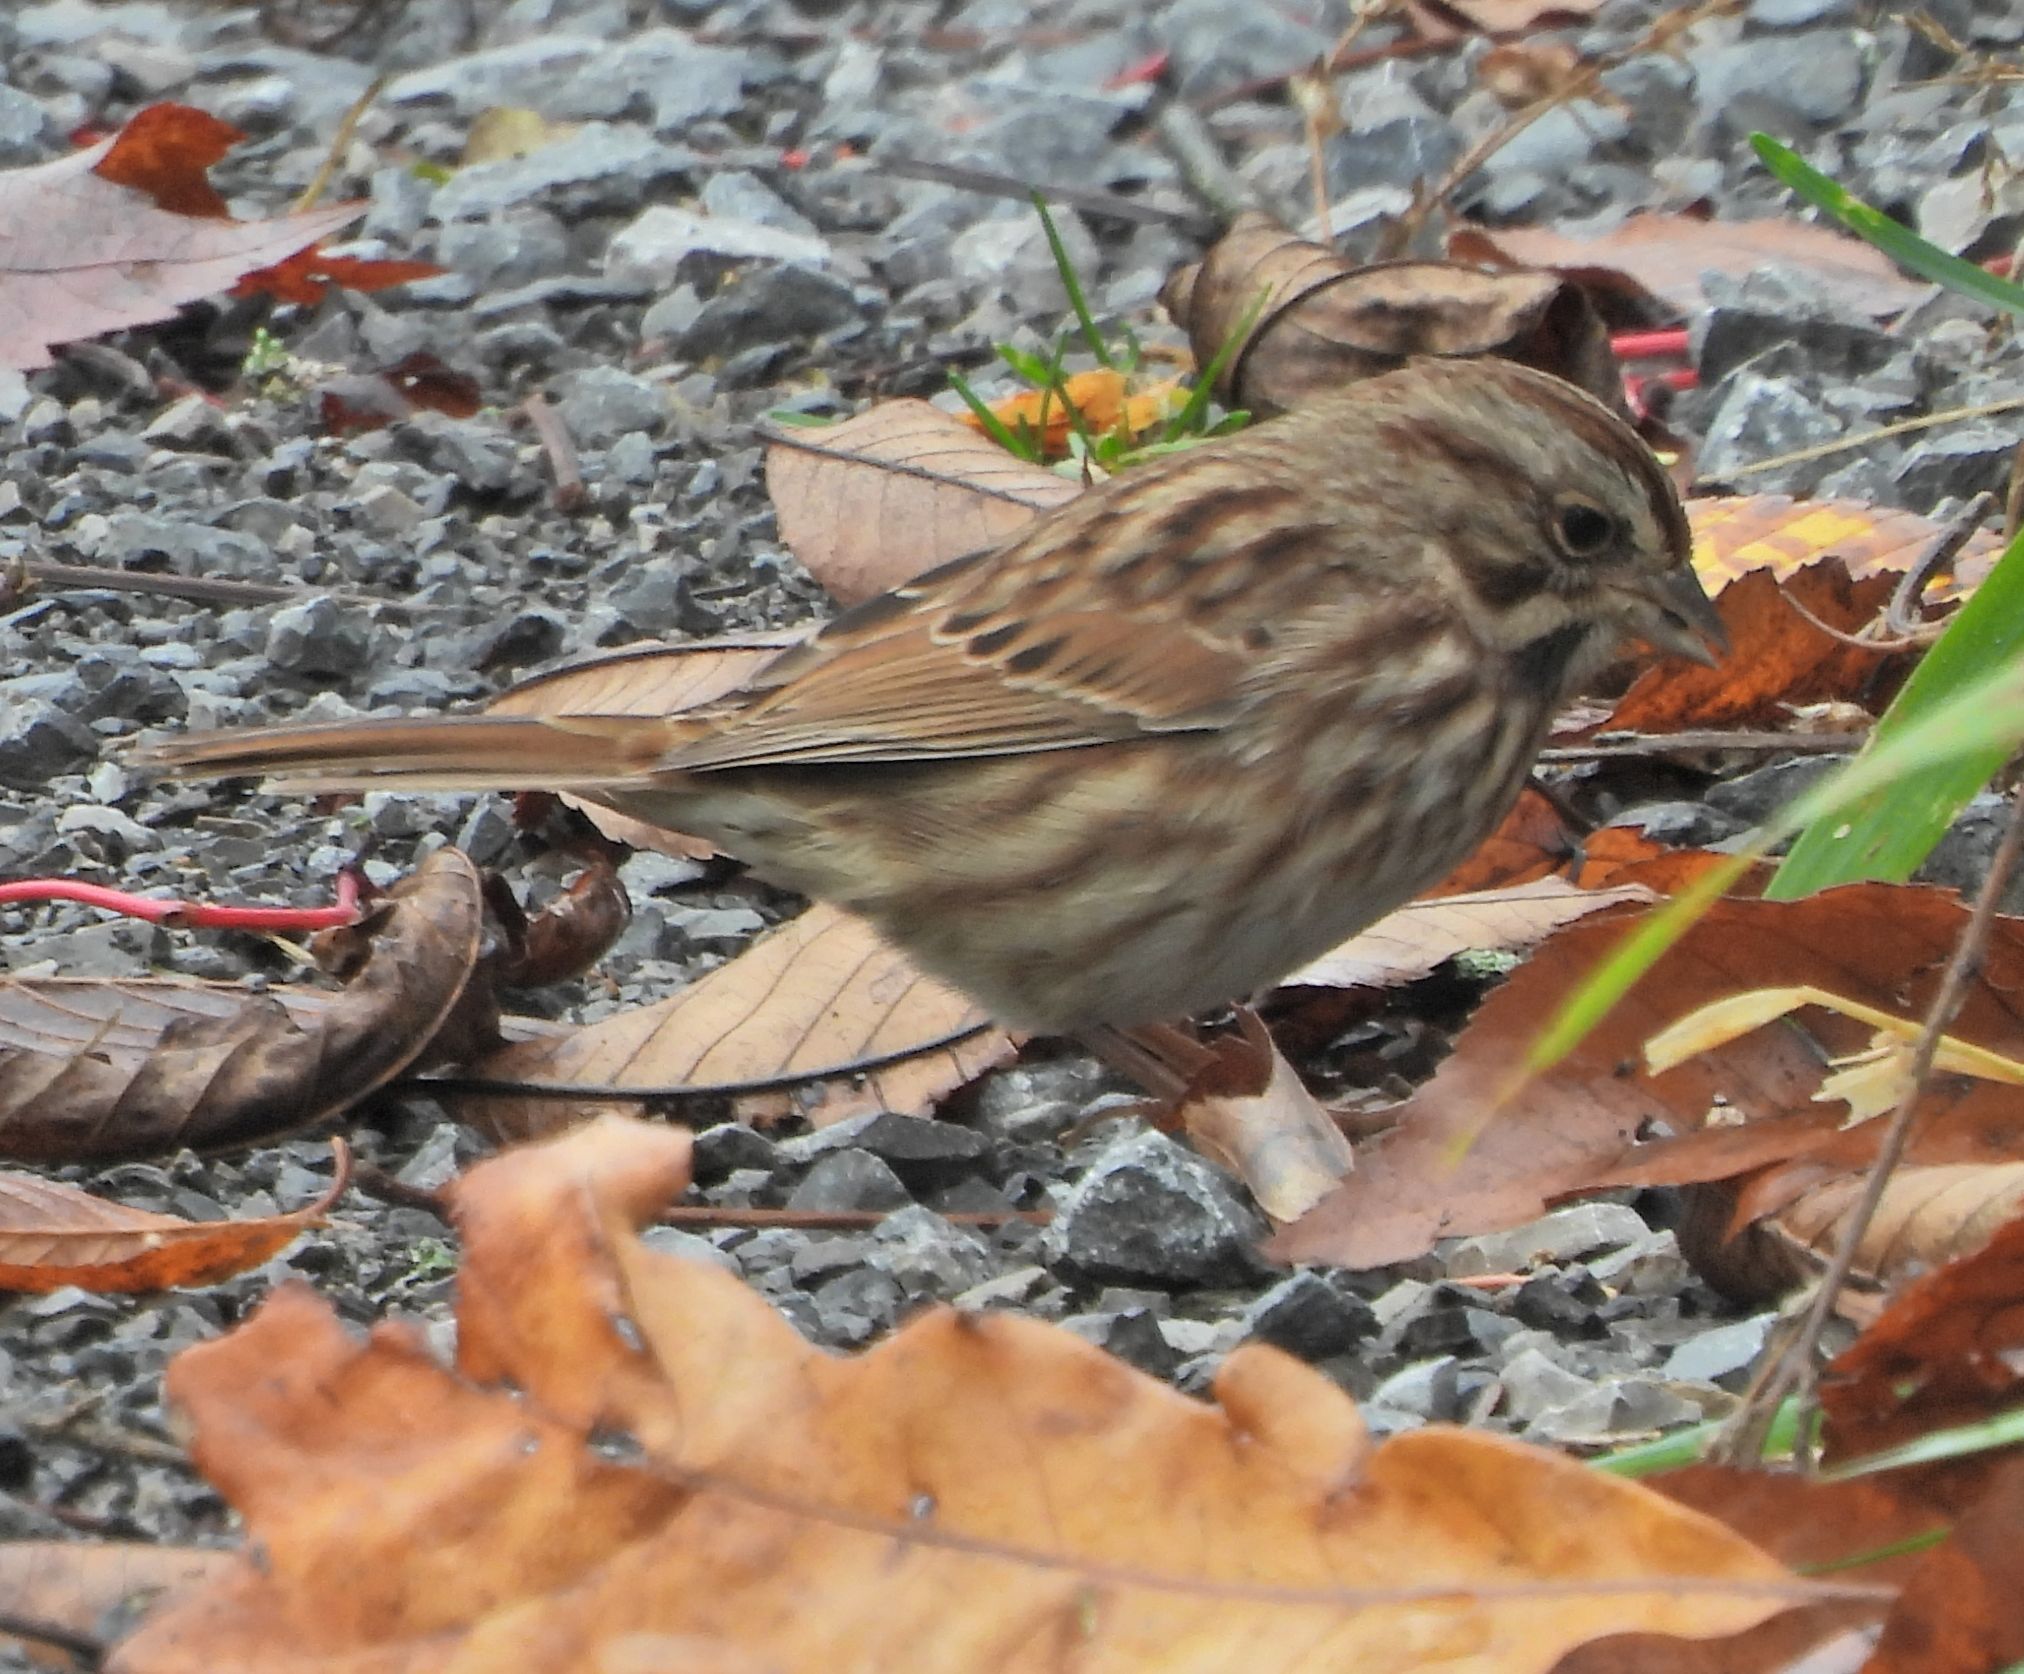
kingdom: Animalia
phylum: Chordata
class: Aves
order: Passeriformes
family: Passerellidae
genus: Melospiza
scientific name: Melospiza melodia
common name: Song sparrow
